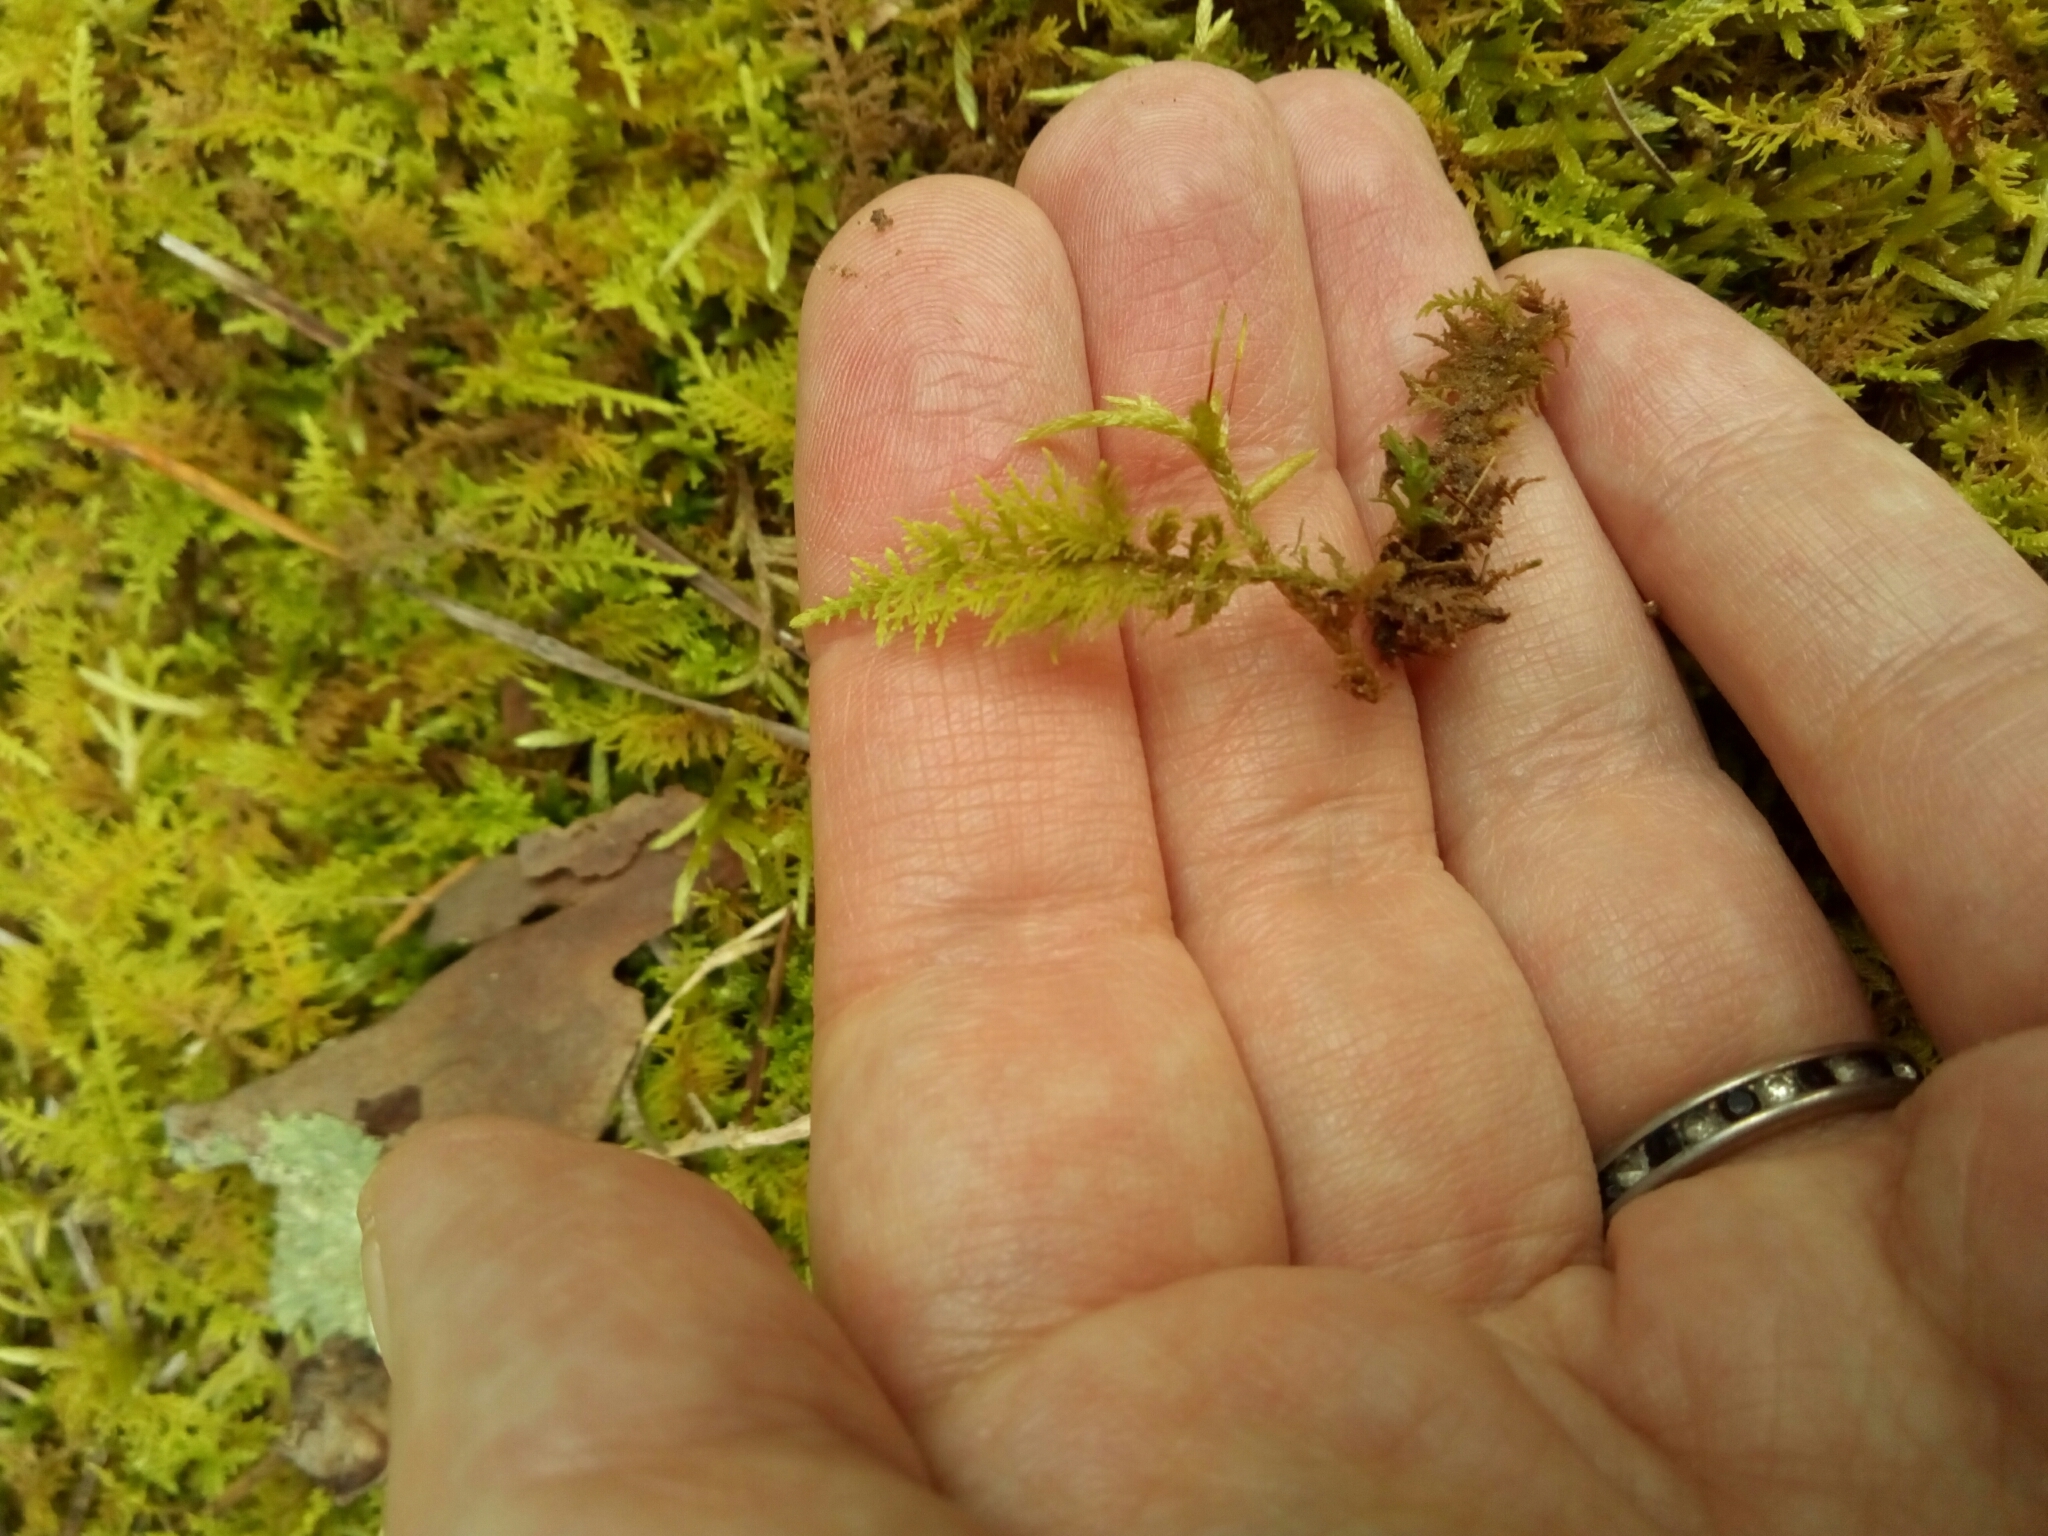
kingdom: Plantae
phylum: Bryophyta
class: Bryopsida
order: Hypnales
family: Thuidiaceae
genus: Thuidium
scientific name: Thuidium delicatulum
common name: Delicate fern moss
